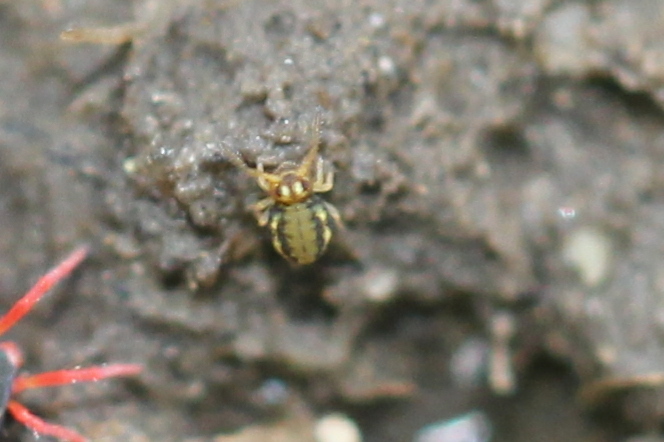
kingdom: Animalia
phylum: Arthropoda
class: Collembola
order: Symphypleona
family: Katiannidae
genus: Sminthurinus
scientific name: Sminthurinus elegans
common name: Globular springtail
